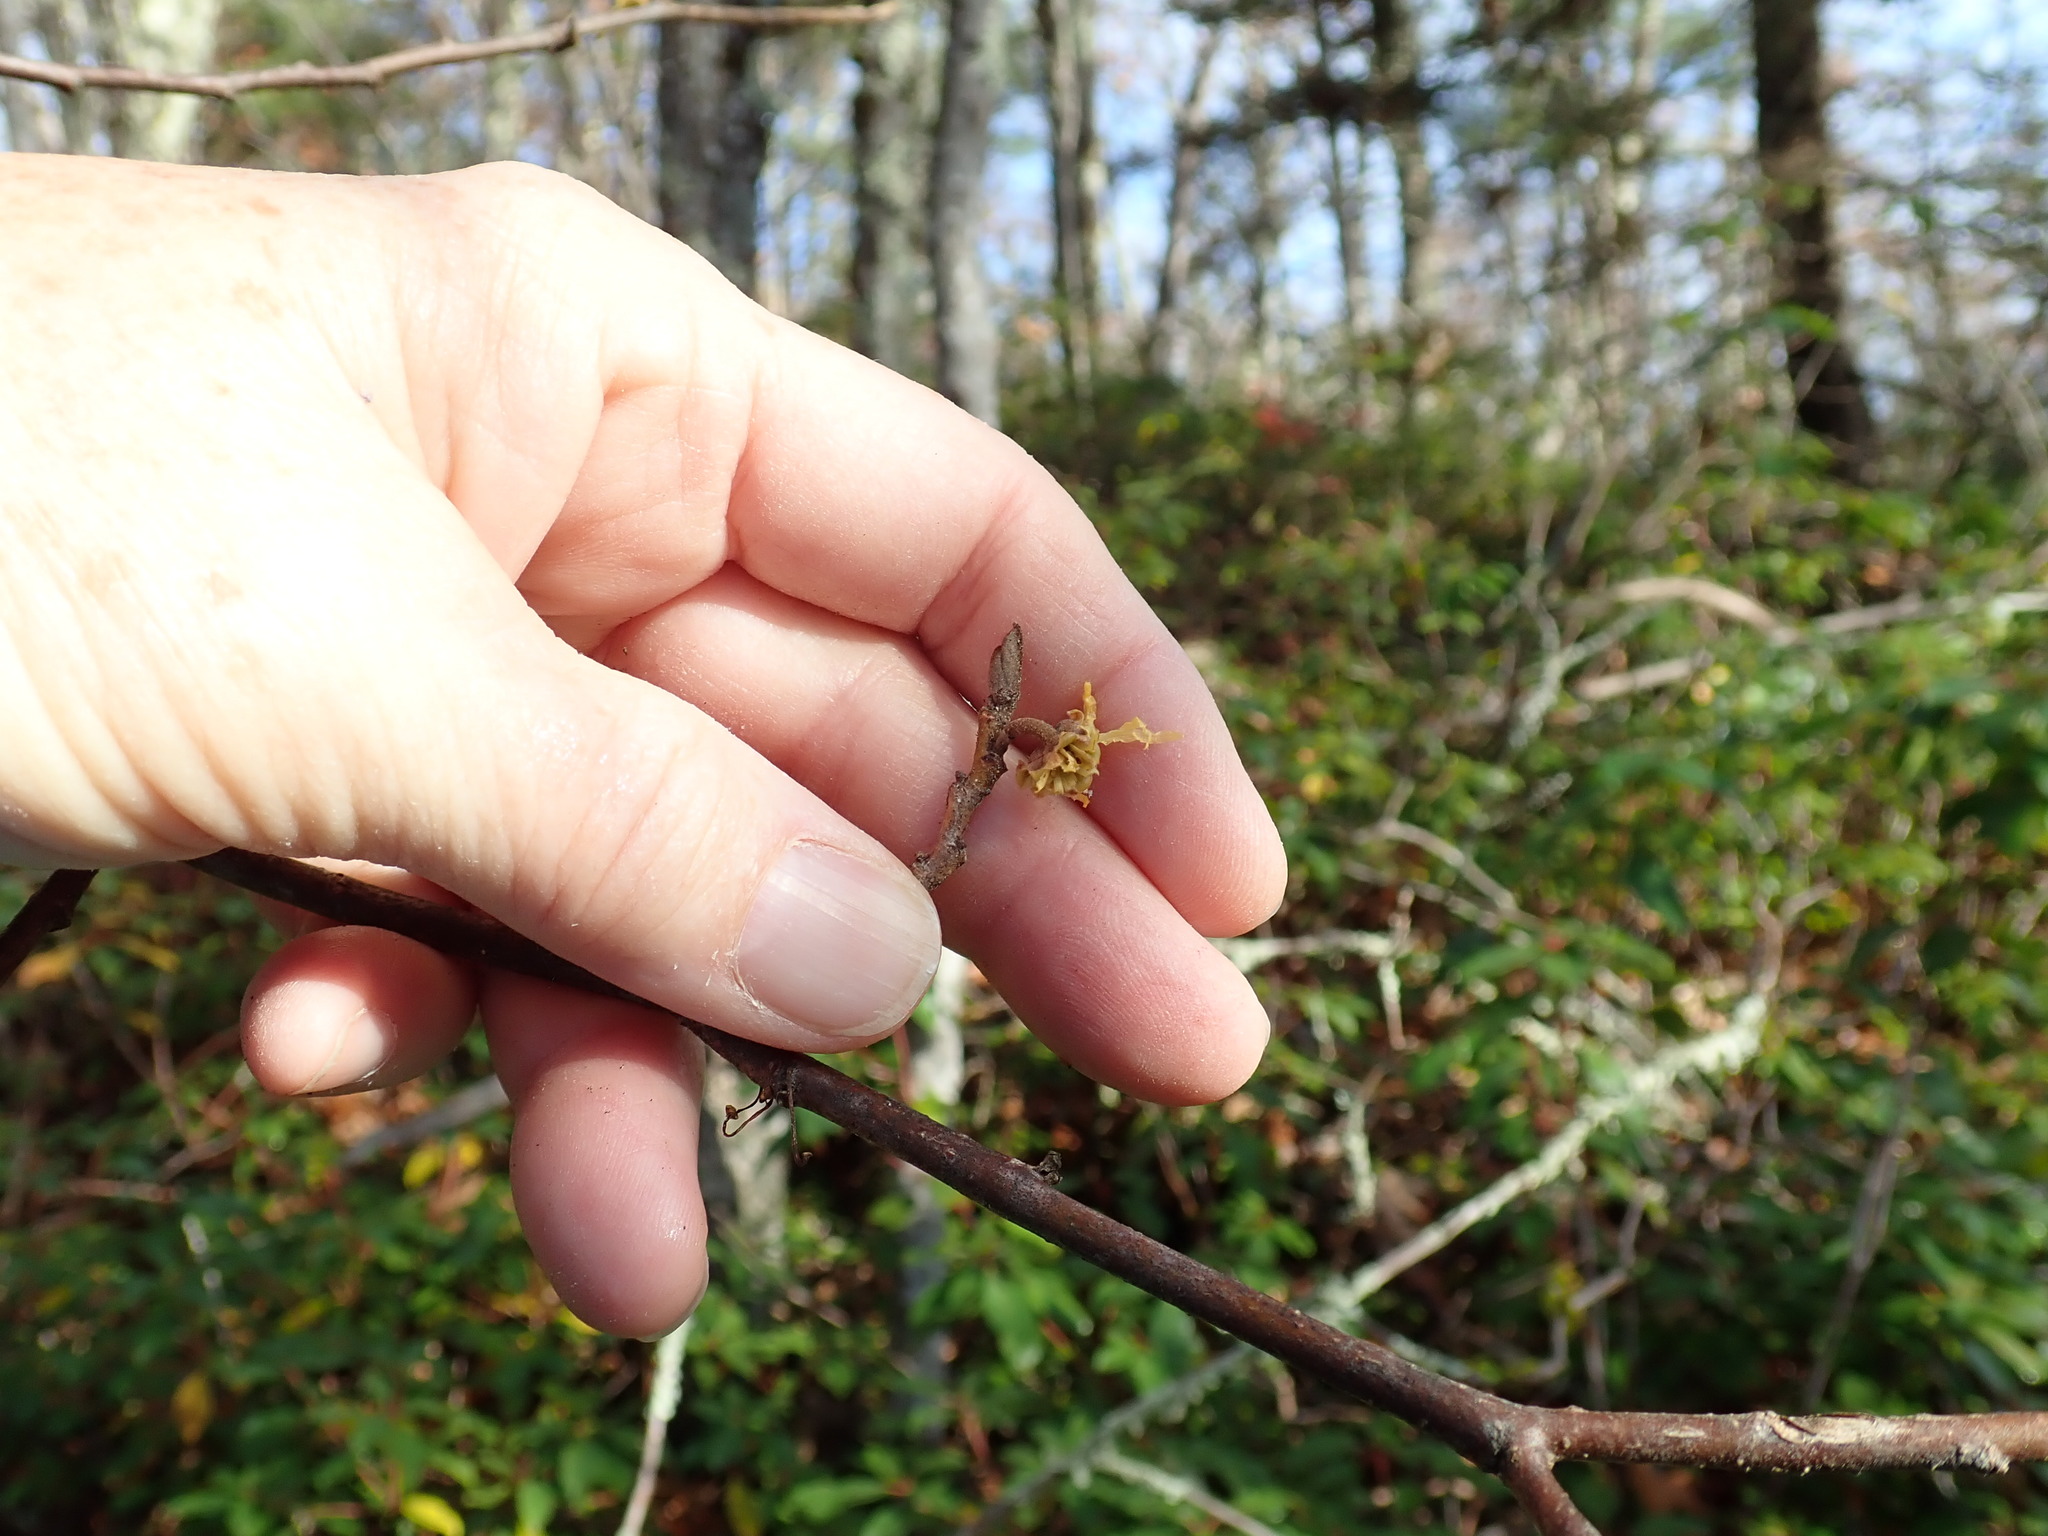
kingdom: Plantae
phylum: Tracheophyta
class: Magnoliopsida
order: Saxifragales
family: Hamamelidaceae
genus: Hamamelis
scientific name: Hamamelis virginiana
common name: Witch-hazel
